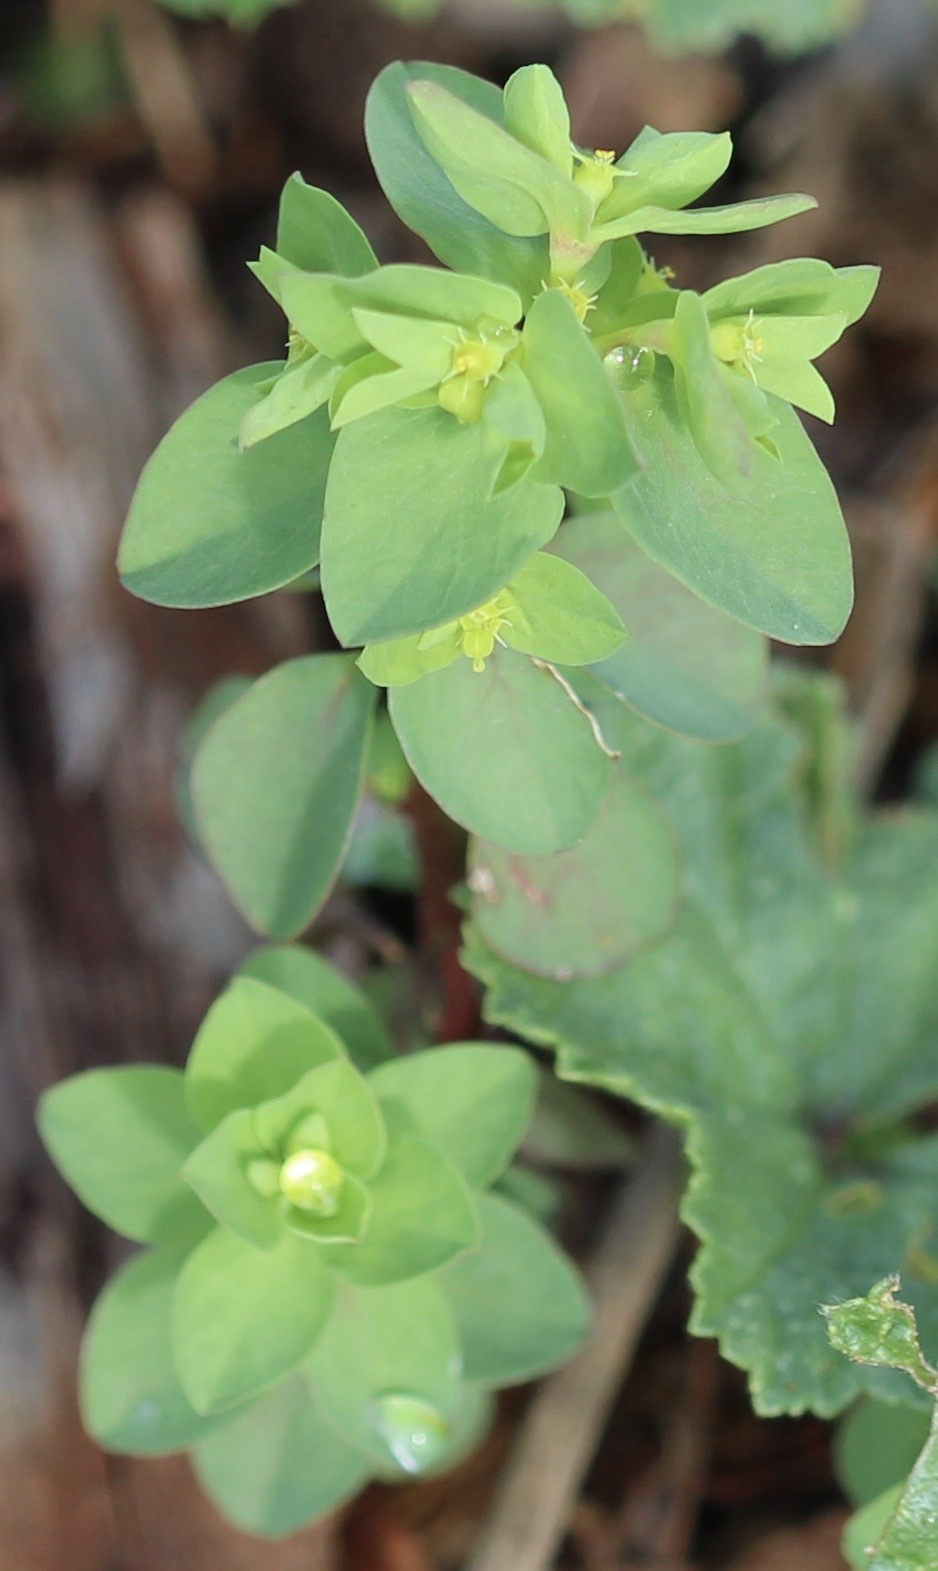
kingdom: Plantae
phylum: Tracheophyta
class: Magnoliopsida
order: Malpighiales
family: Euphorbiaceae
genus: Euphorbia
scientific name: Euphorbia peplus
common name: Petty spurge
